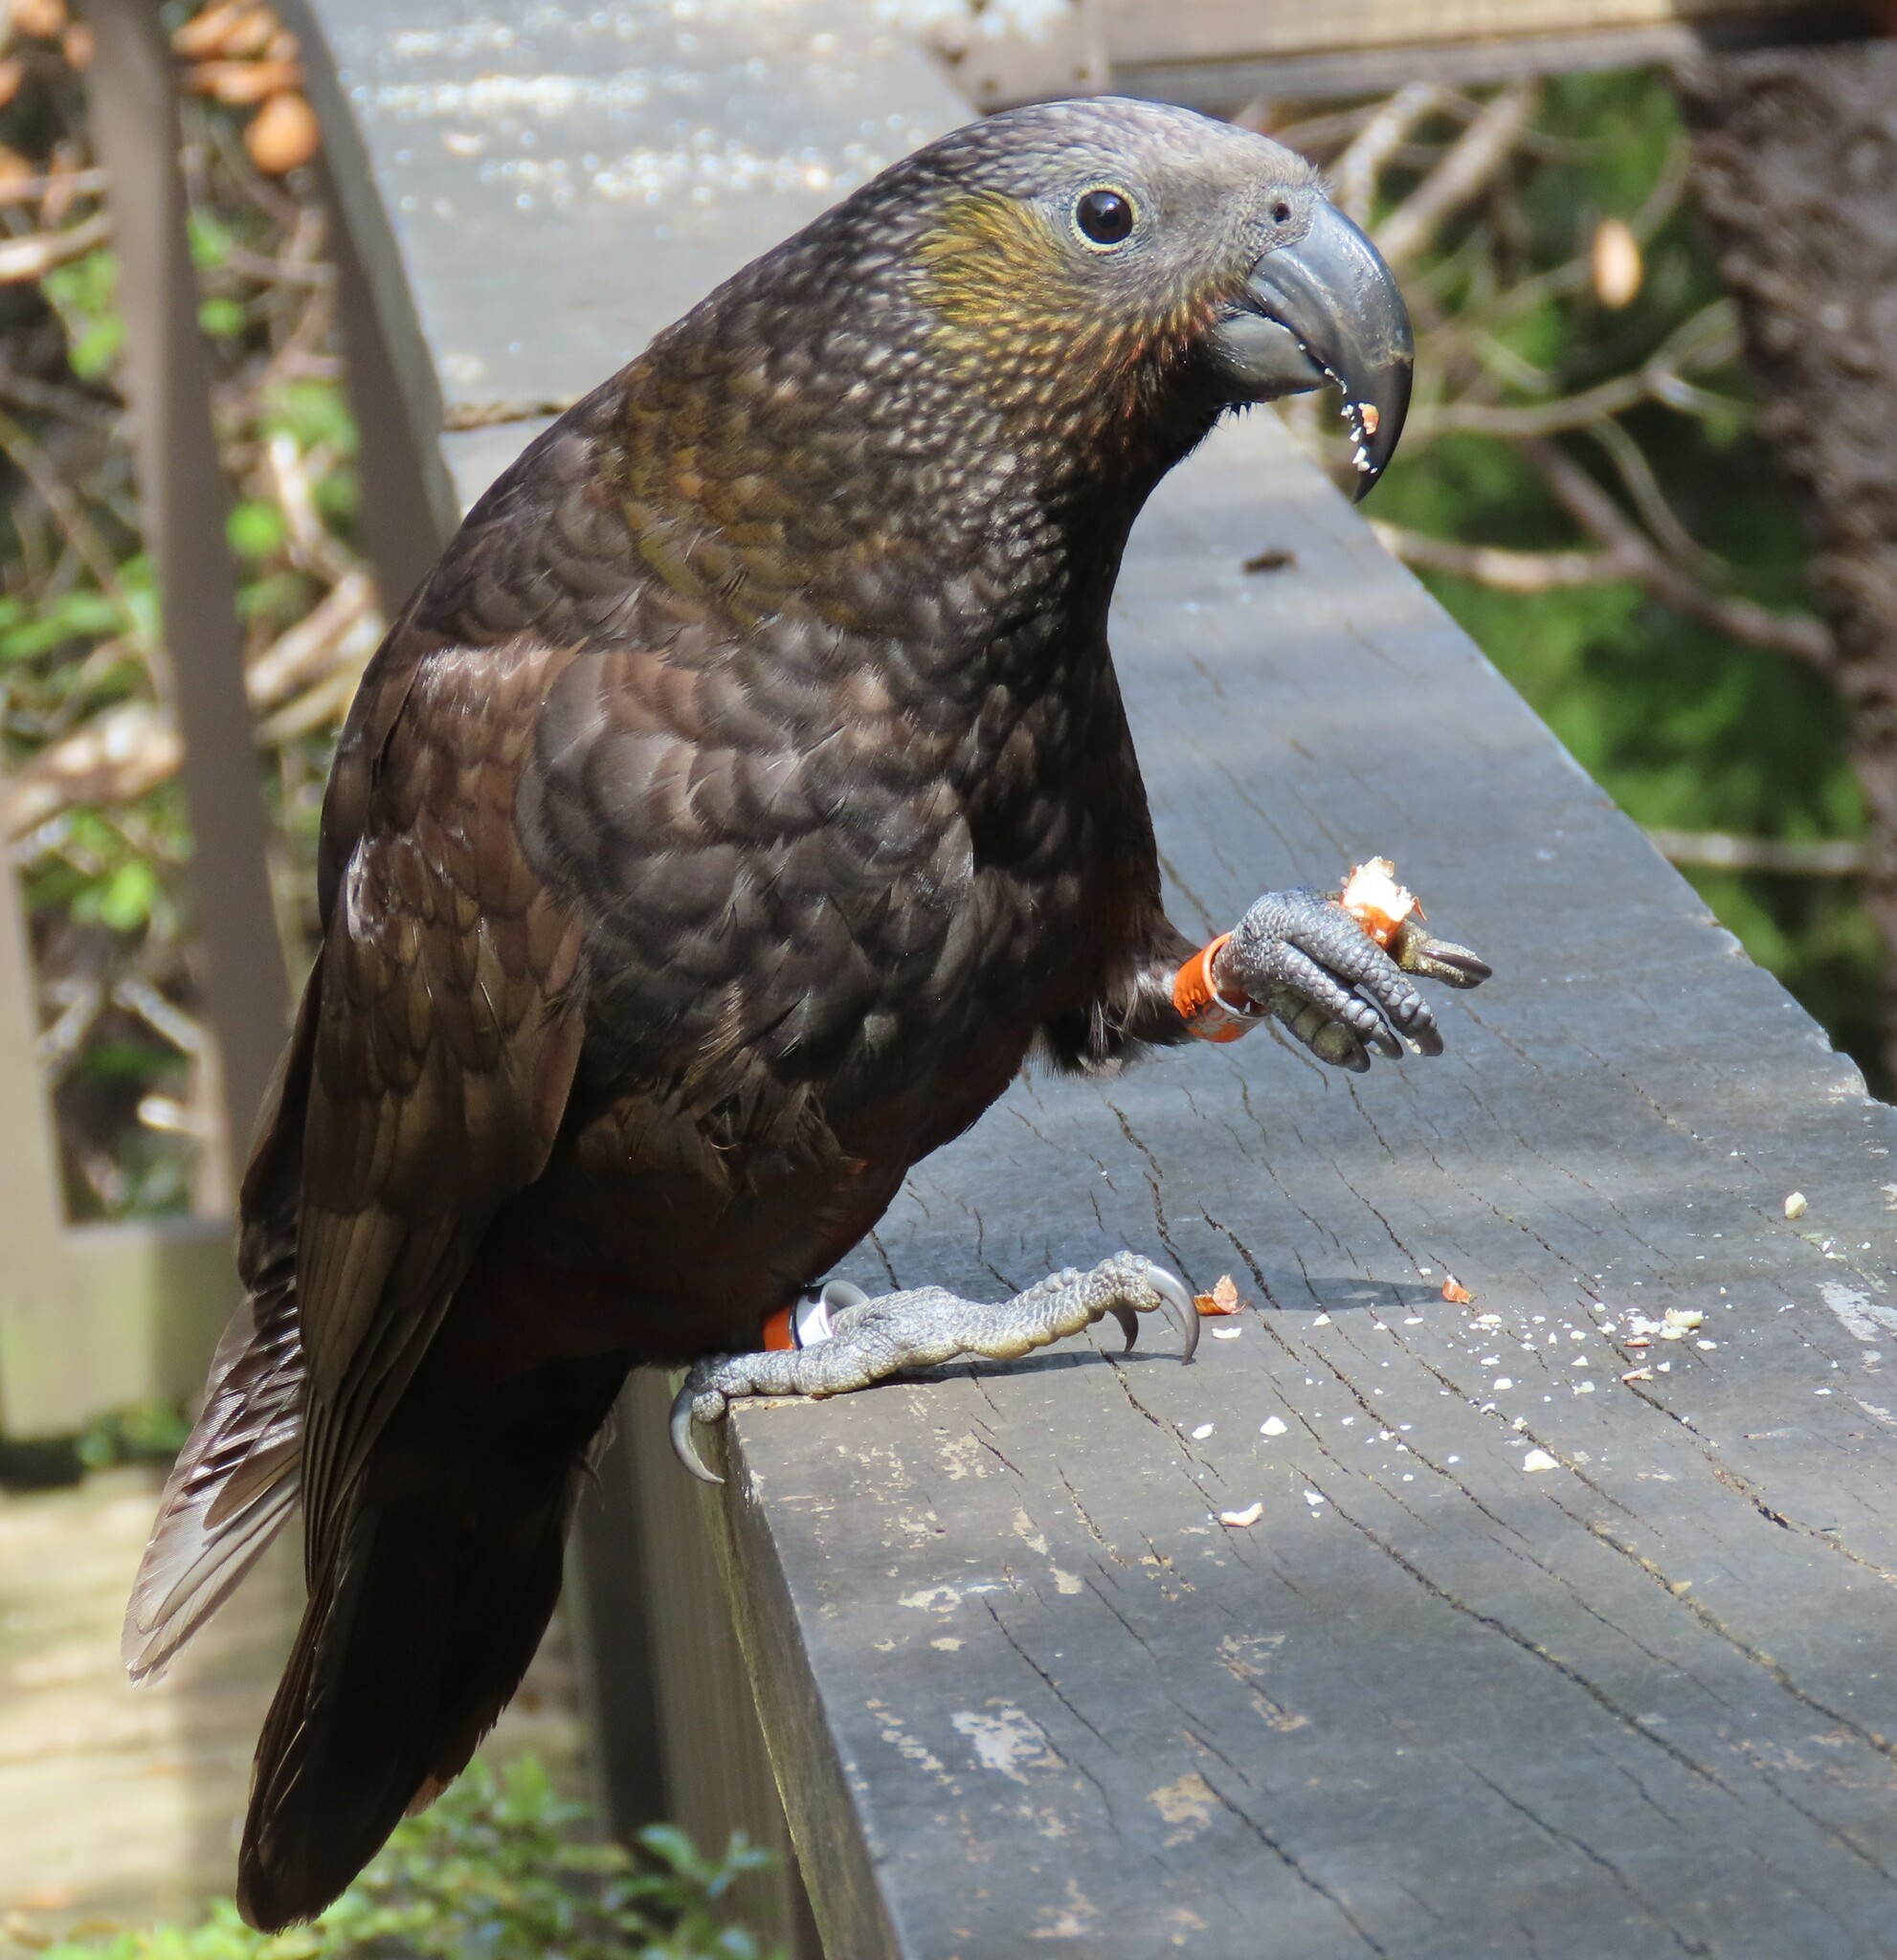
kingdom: Animalia
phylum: Chordata
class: Aves
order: Psittaciformes
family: Psittacidae
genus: Nestor
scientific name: Nestor meridionalis
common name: New zealand kaka
